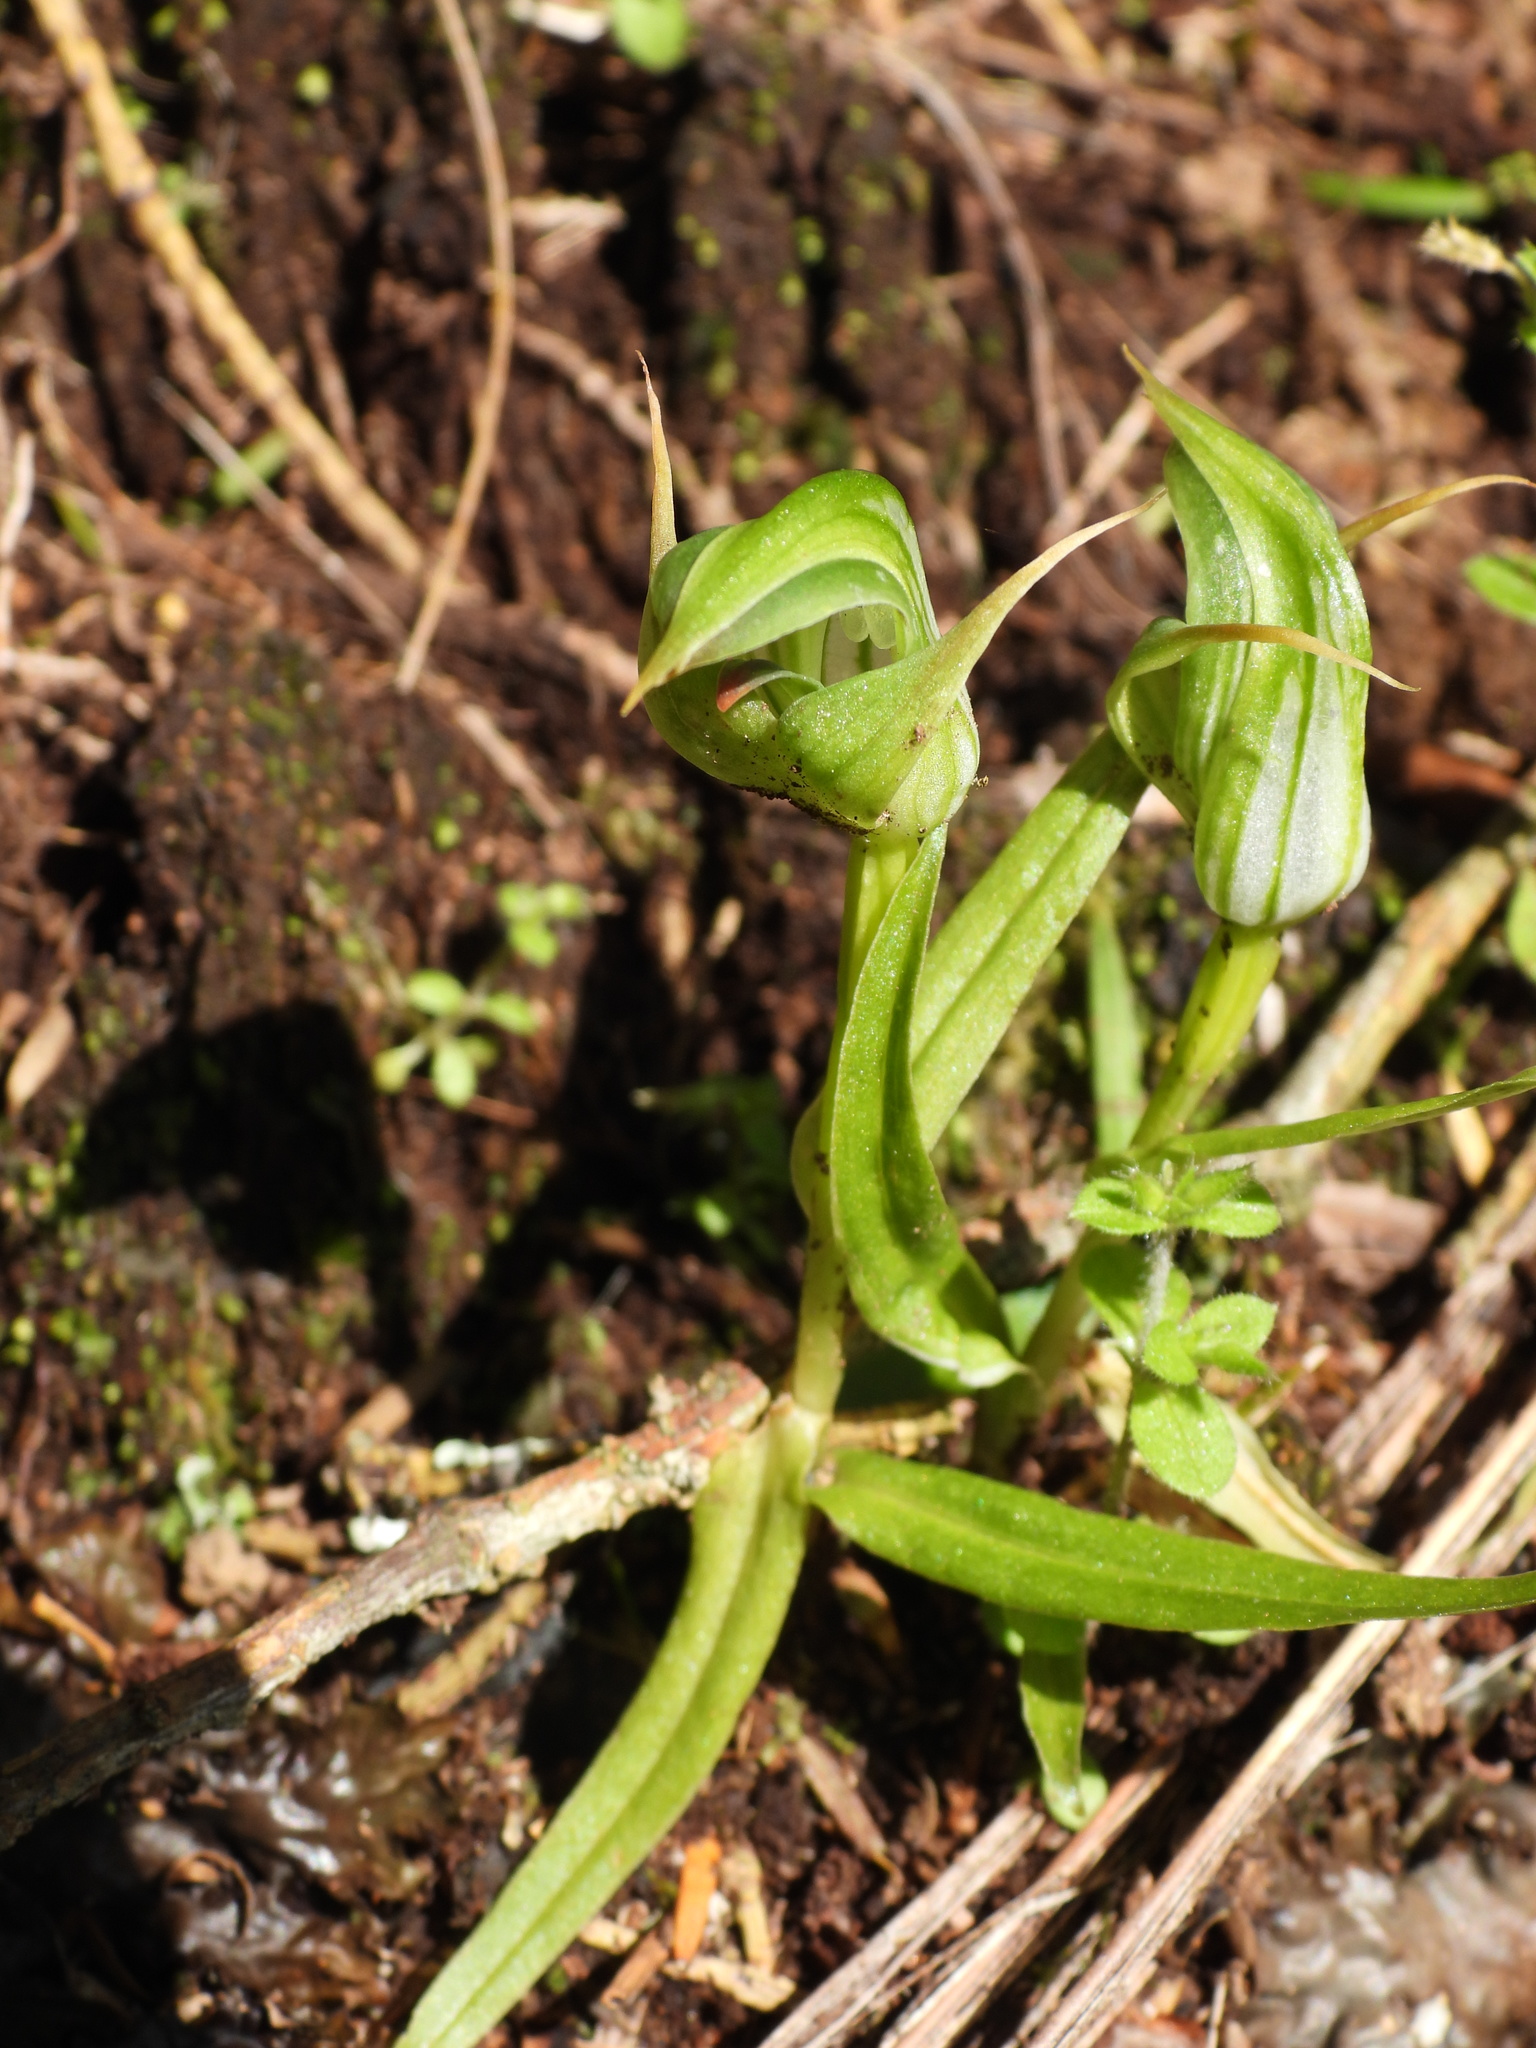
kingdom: Plantae
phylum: Tracheophyta
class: Liliopsida
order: Asparagales
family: Orchidaceae
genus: Pterostylis
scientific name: Pterostylis montana
